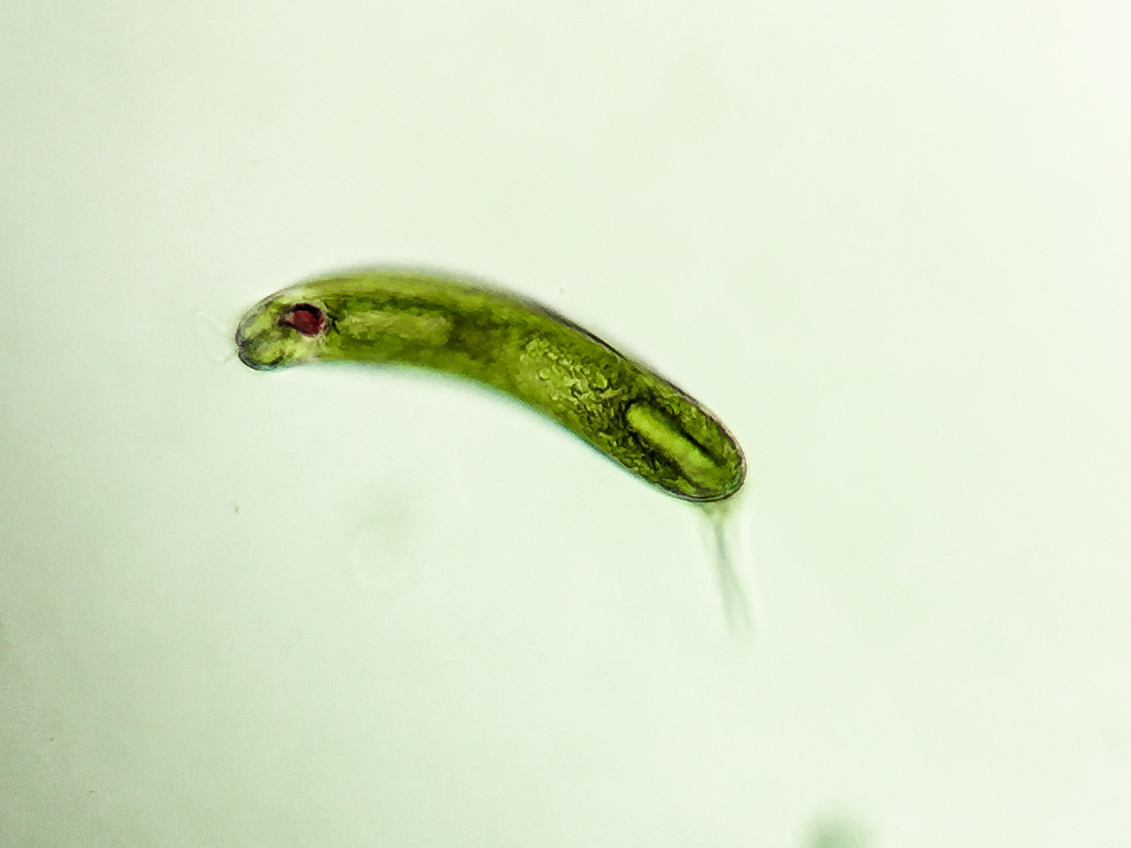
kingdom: Protozoa
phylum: Euglenozoa
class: Euglenoidea
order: Euglenida
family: Phacidae
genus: Lepocinclis
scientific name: Lepocinclis oxyuris
